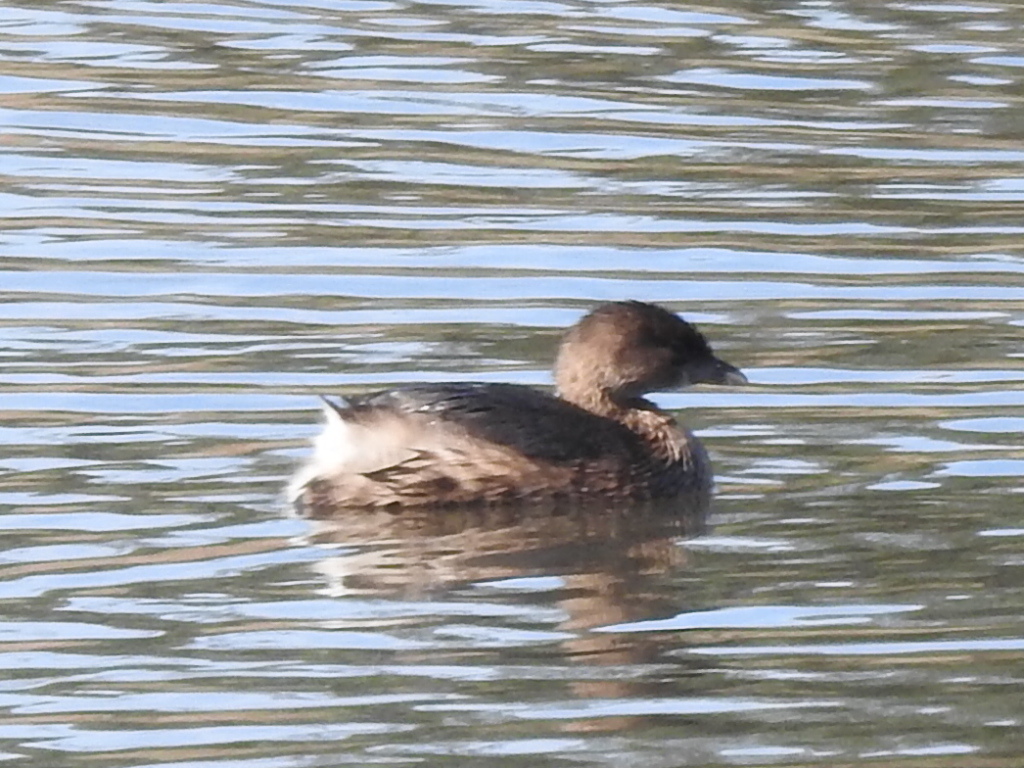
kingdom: Animalia
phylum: Chordata
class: Aves
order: Podicipediformes
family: Podicipedidae
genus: Podilymbus
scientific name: Podilymbus podiceps
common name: Pied-billed grebe
